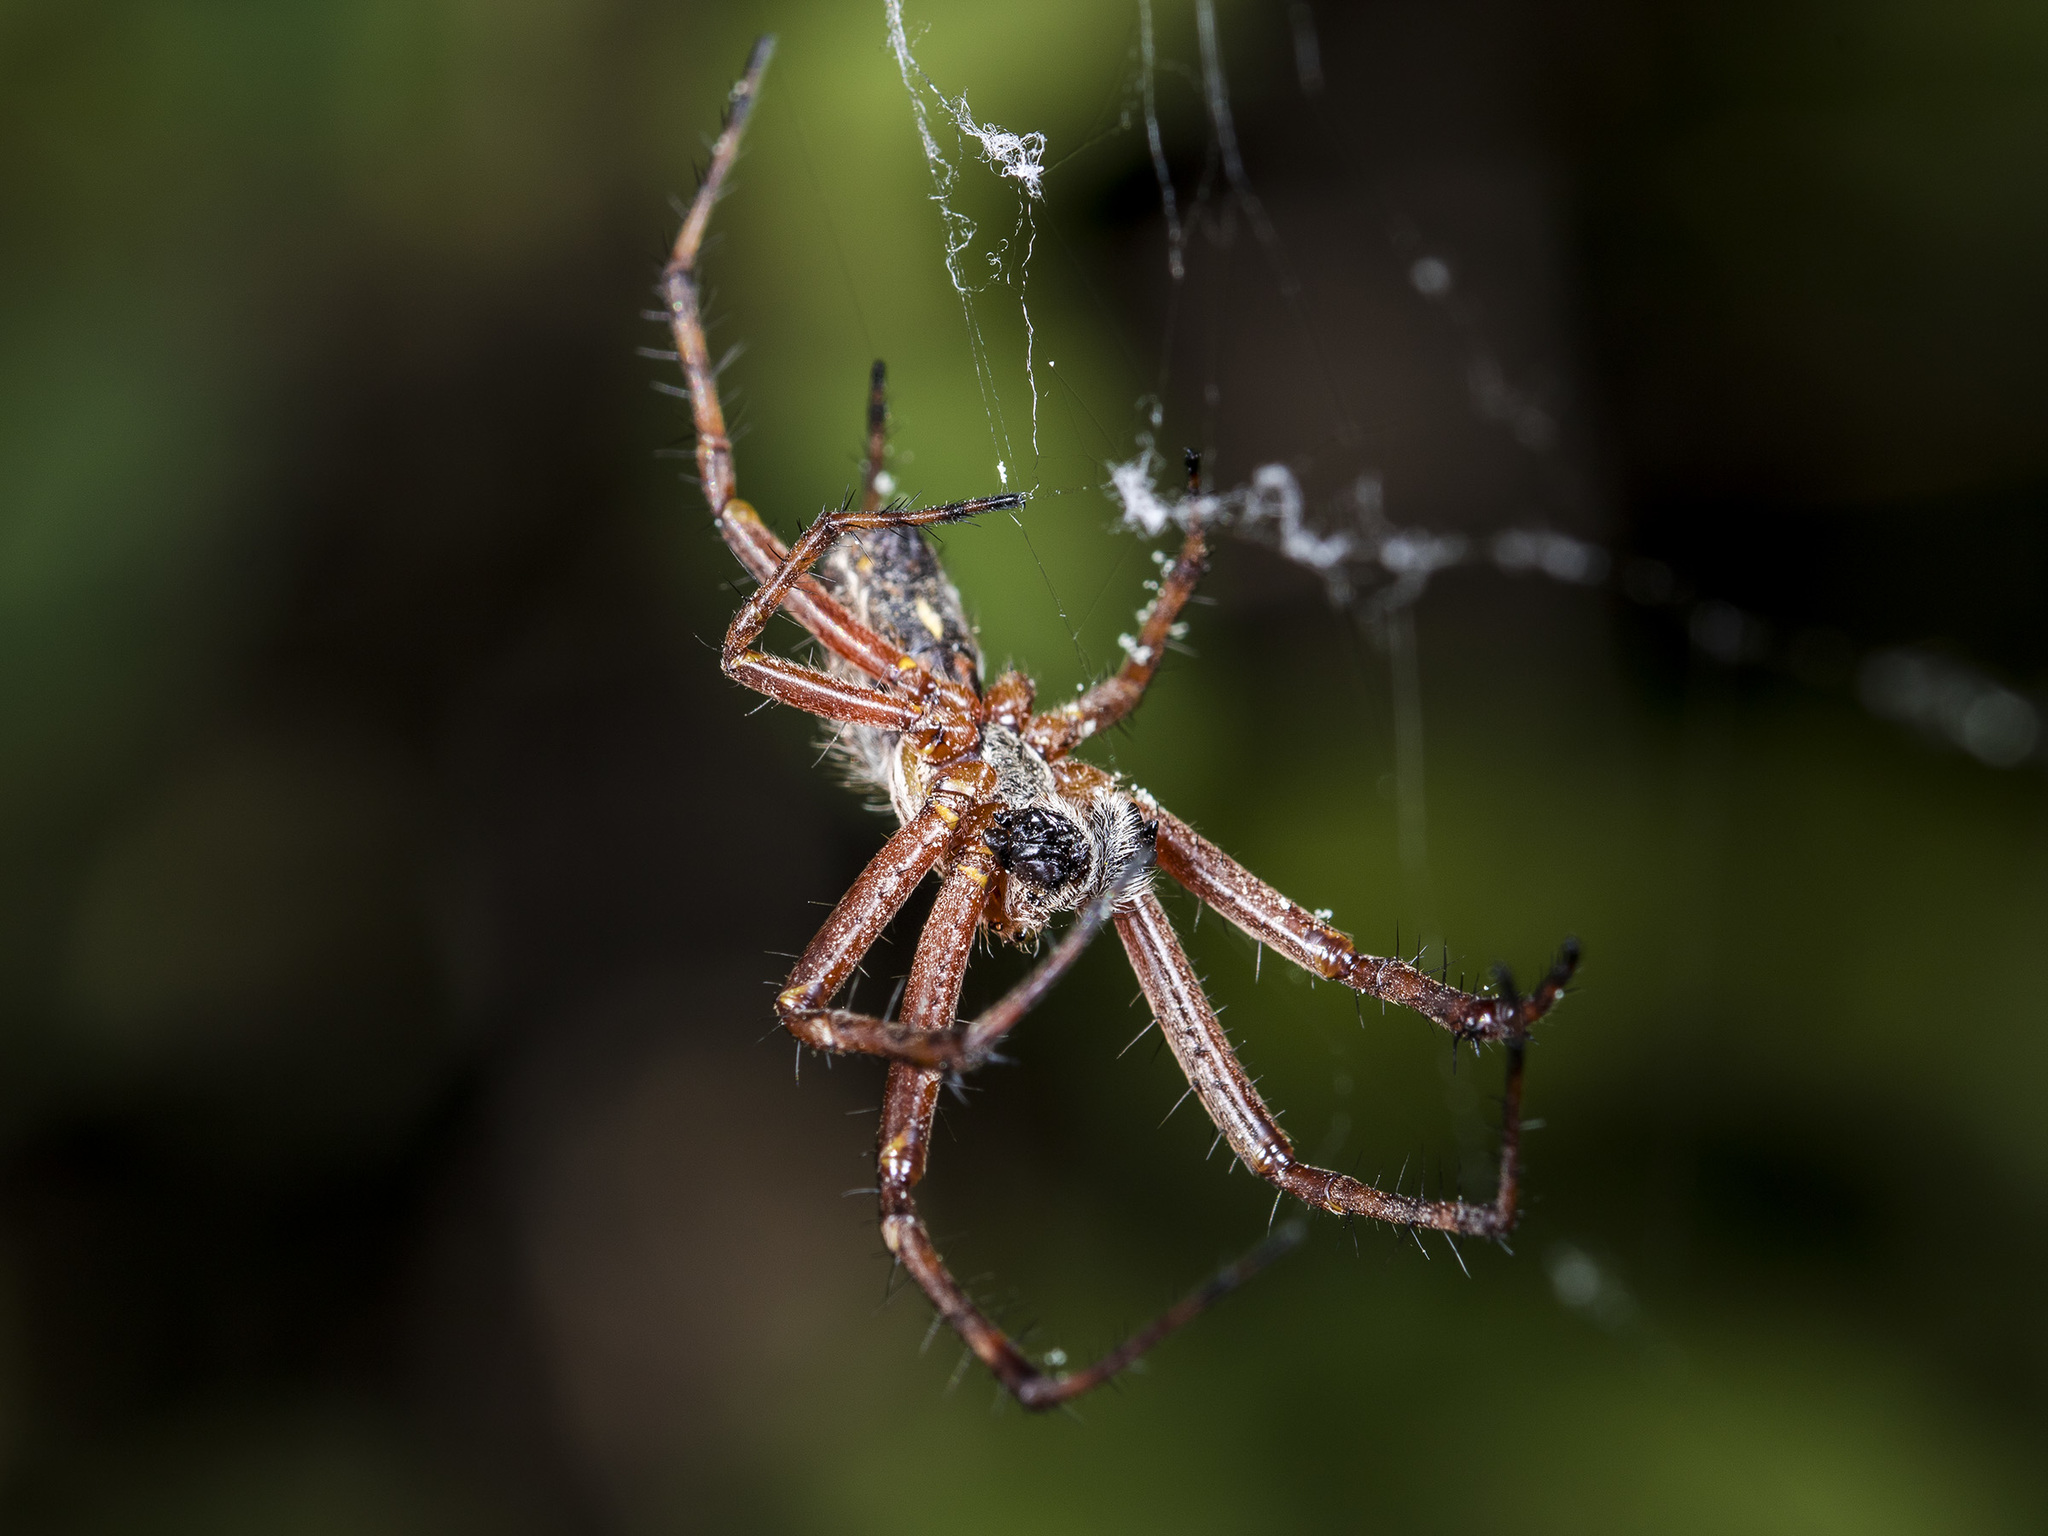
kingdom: Animalia
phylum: Arthropoda
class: Arachnida
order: Araneae
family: Araneidae
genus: Aculepeira
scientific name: Aculepeira packardi
